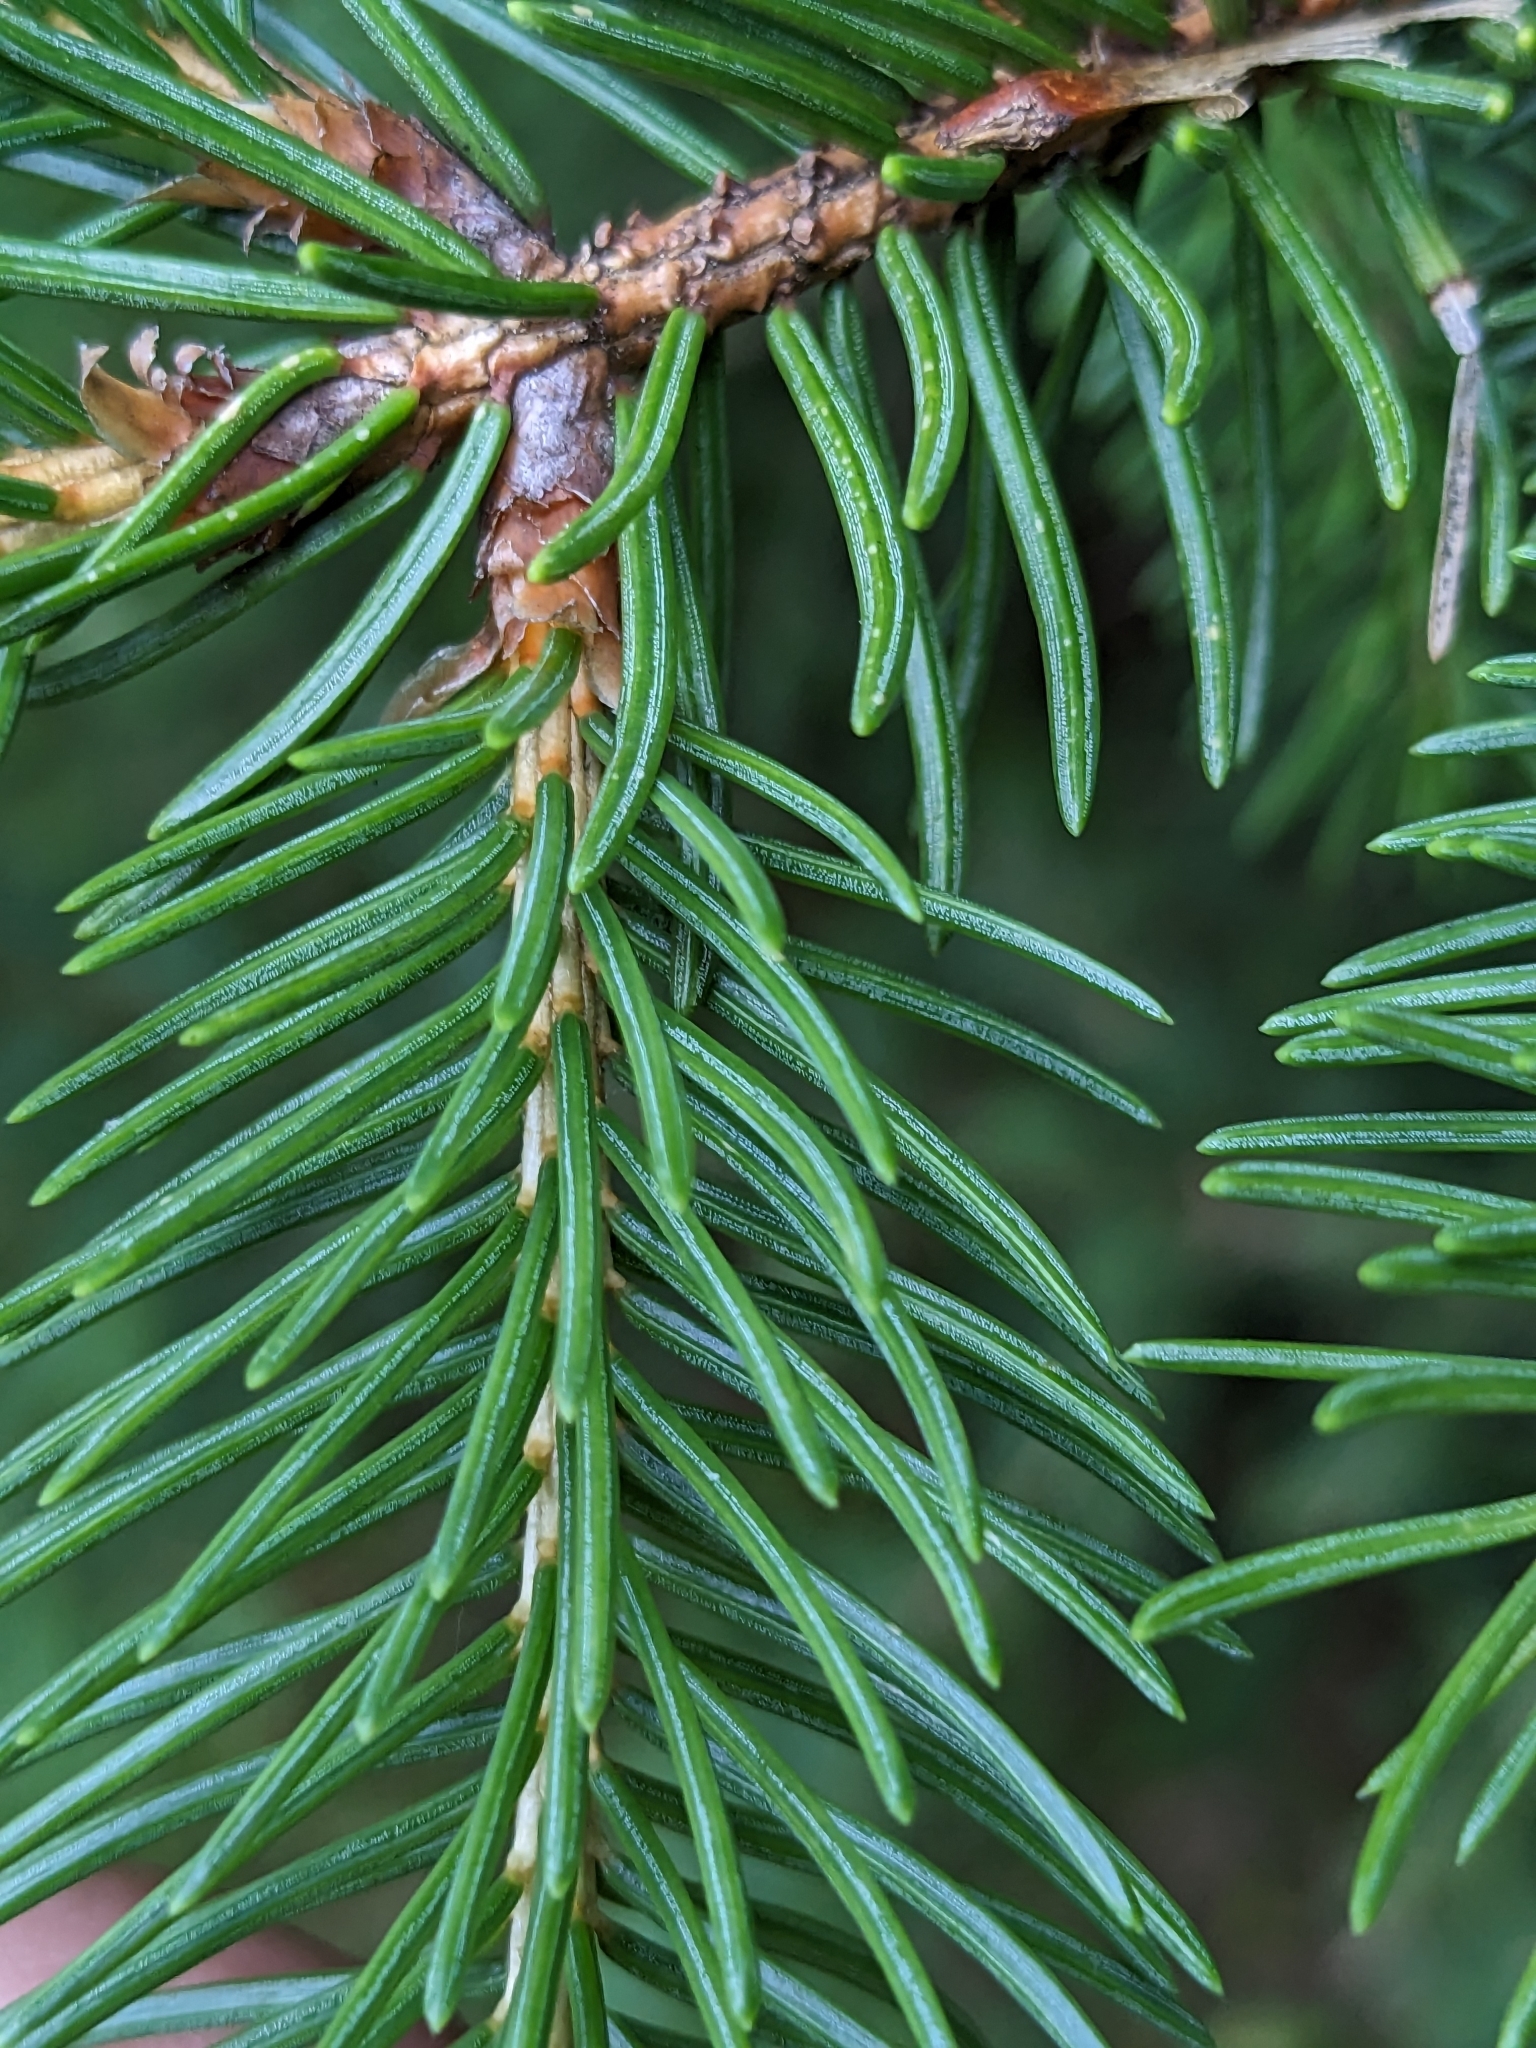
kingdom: Plantae
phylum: Tracheophyta
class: Pinopsida
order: Pinales
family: Pinaceae
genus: Picea
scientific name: Picea abies
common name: Norway spruce
